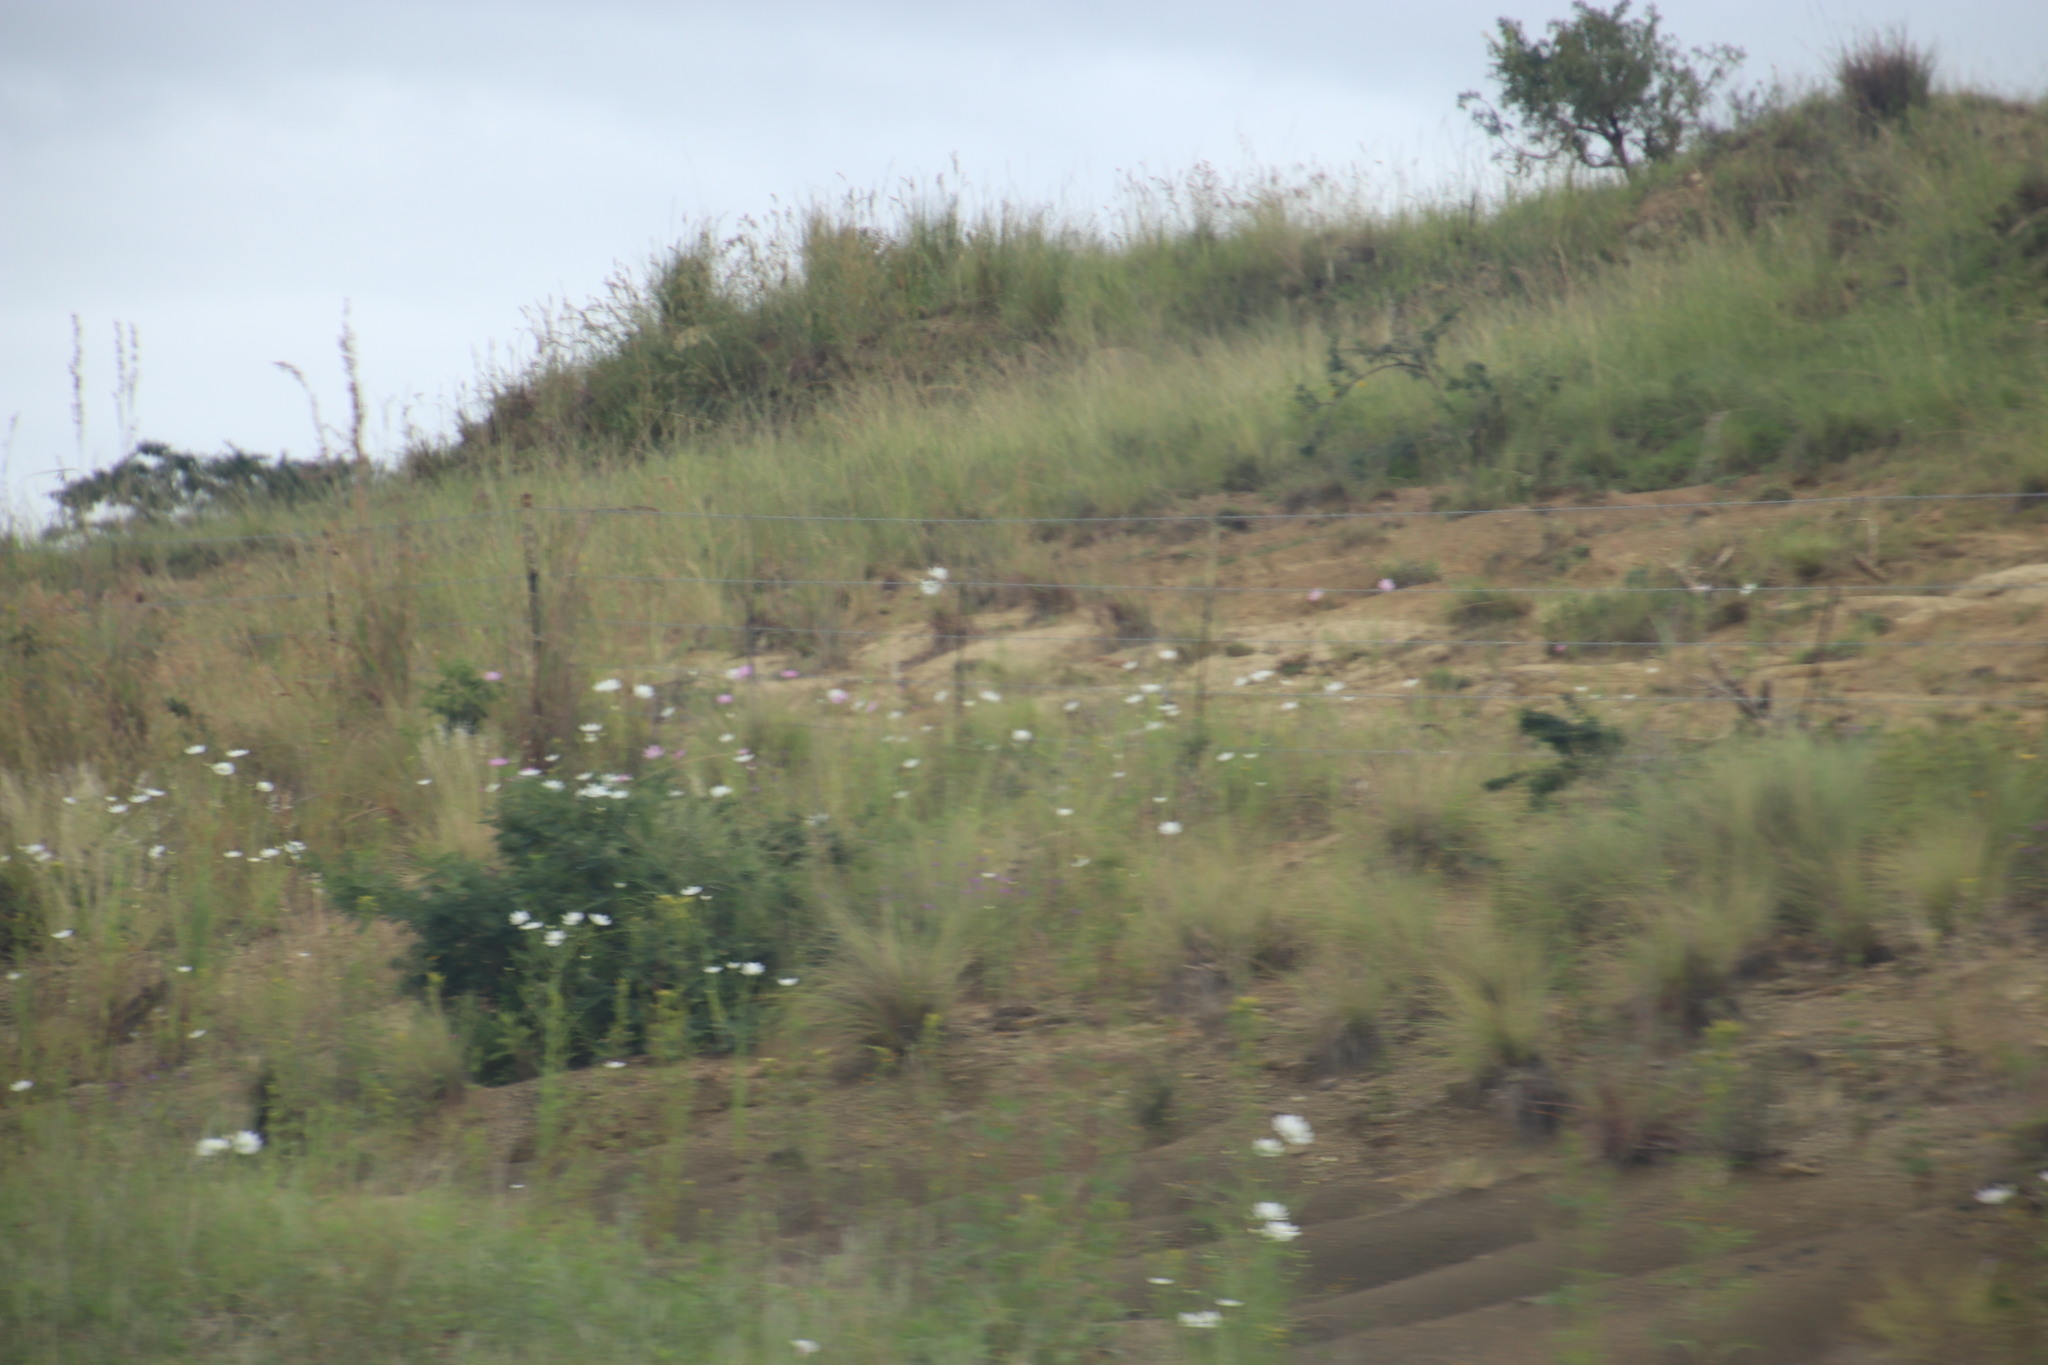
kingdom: Plantae
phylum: Tracheophyta
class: Magnoliopsida
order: Asterales
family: Asteraceae
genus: Cosmos
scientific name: Cosmos bipinnatus
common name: Garden cosmos
